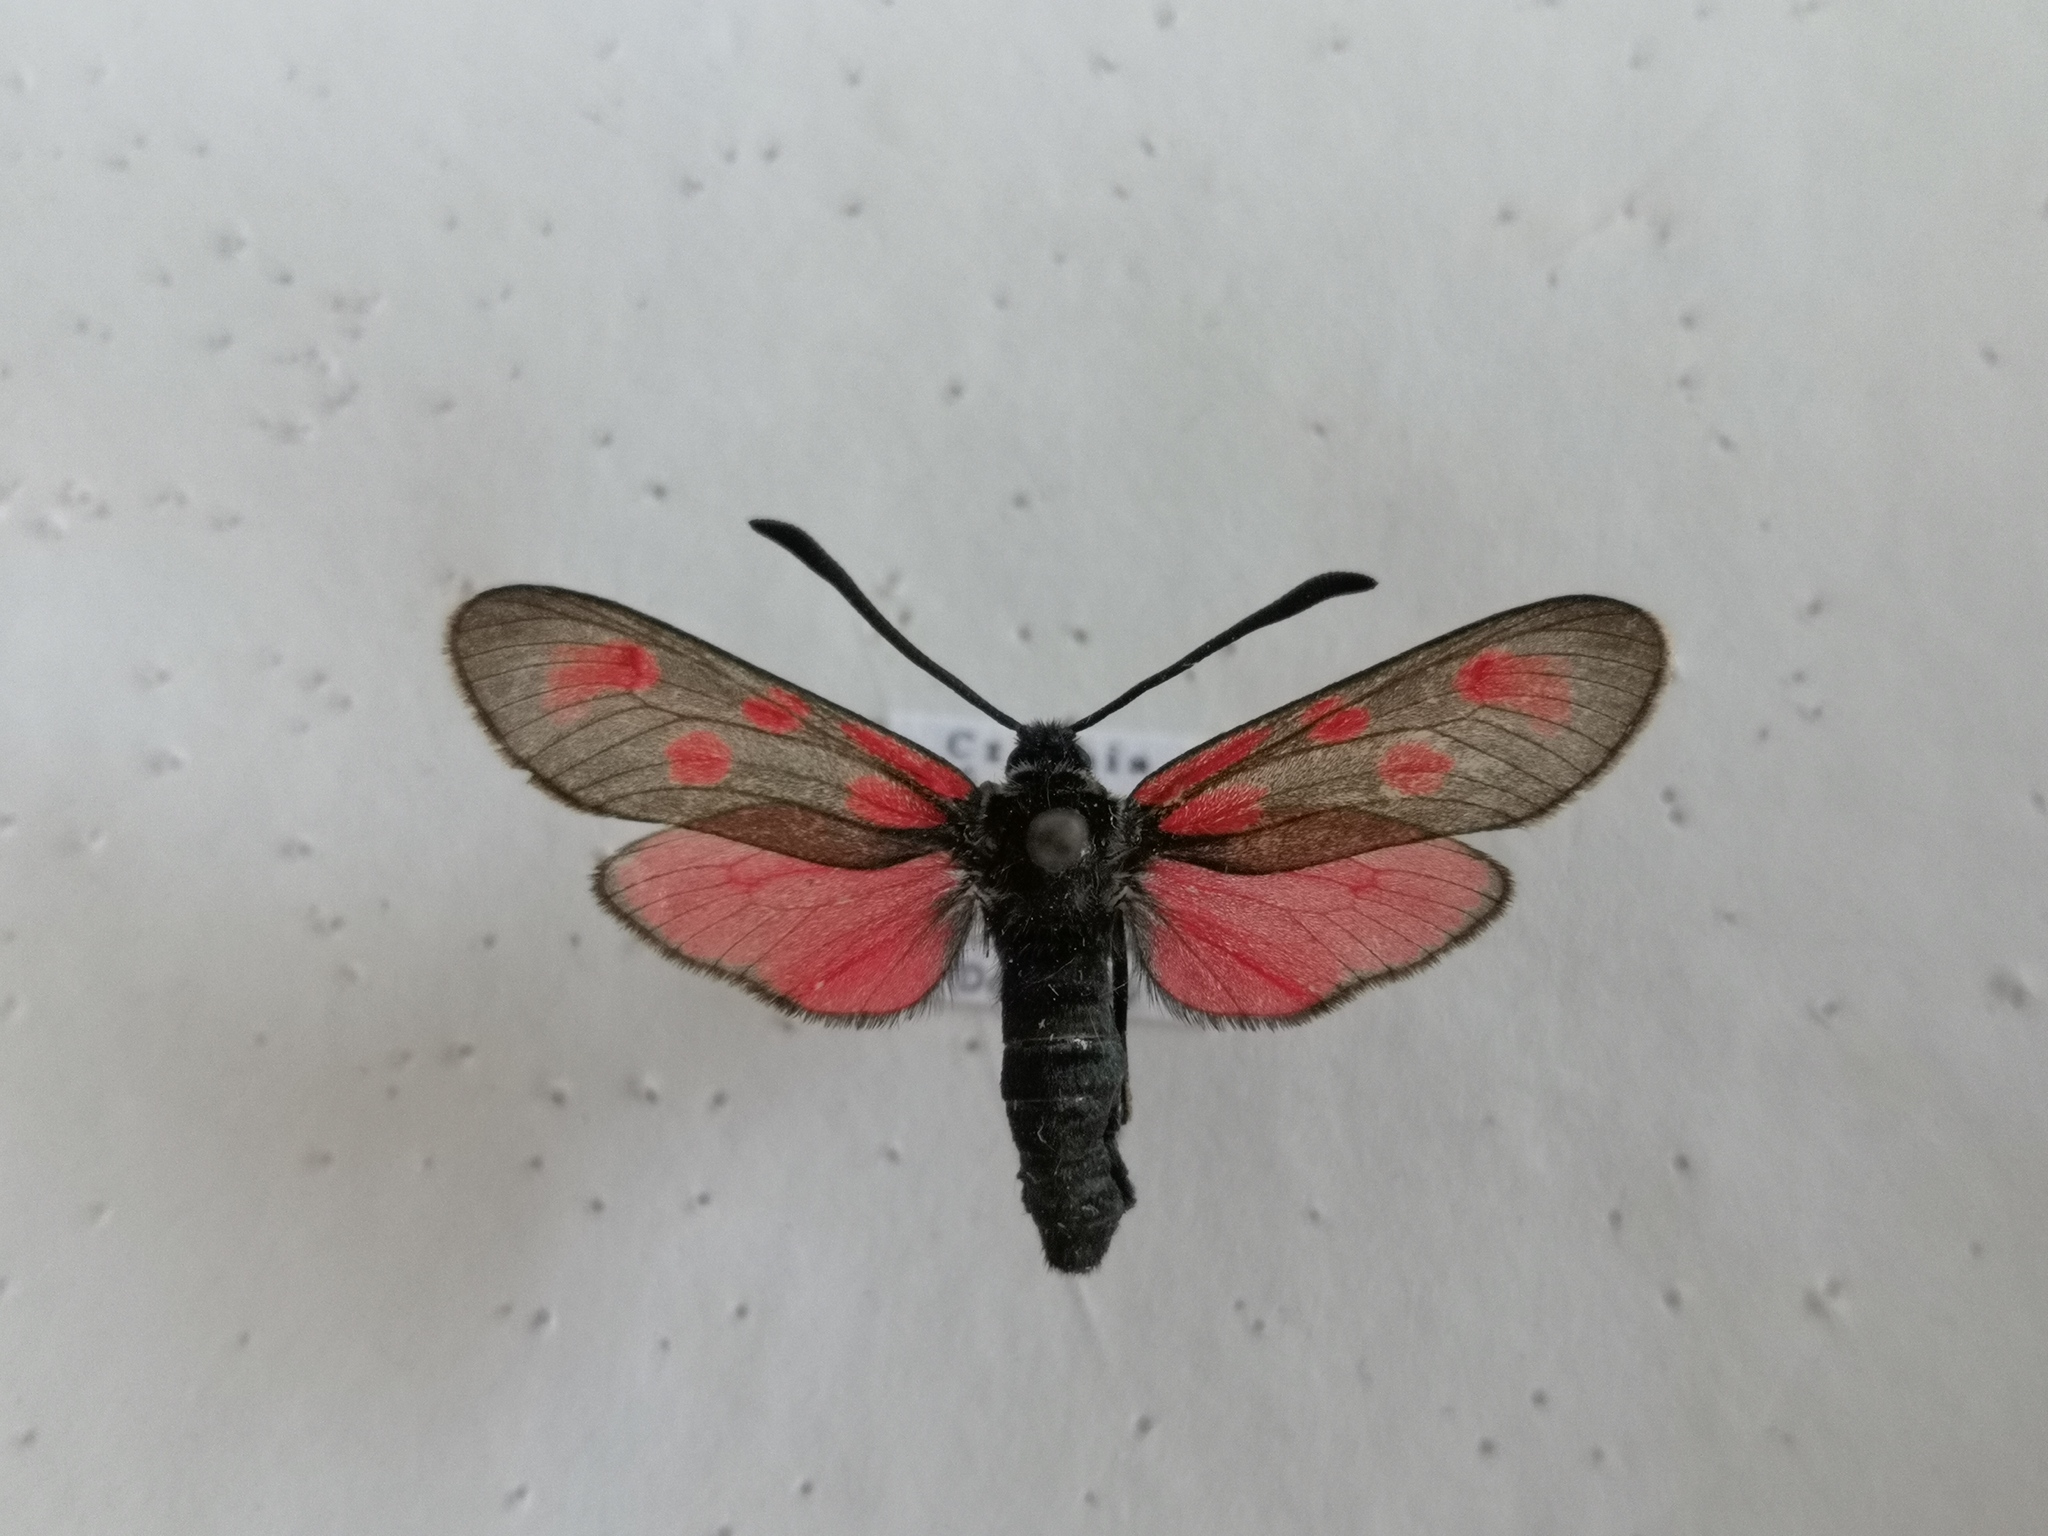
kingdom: Animalia
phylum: Arthropoda
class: Insecta
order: Lepidoptera
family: Zygaenidae
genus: Zygaena
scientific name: Zygaena loti
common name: Slender scotch burnet
